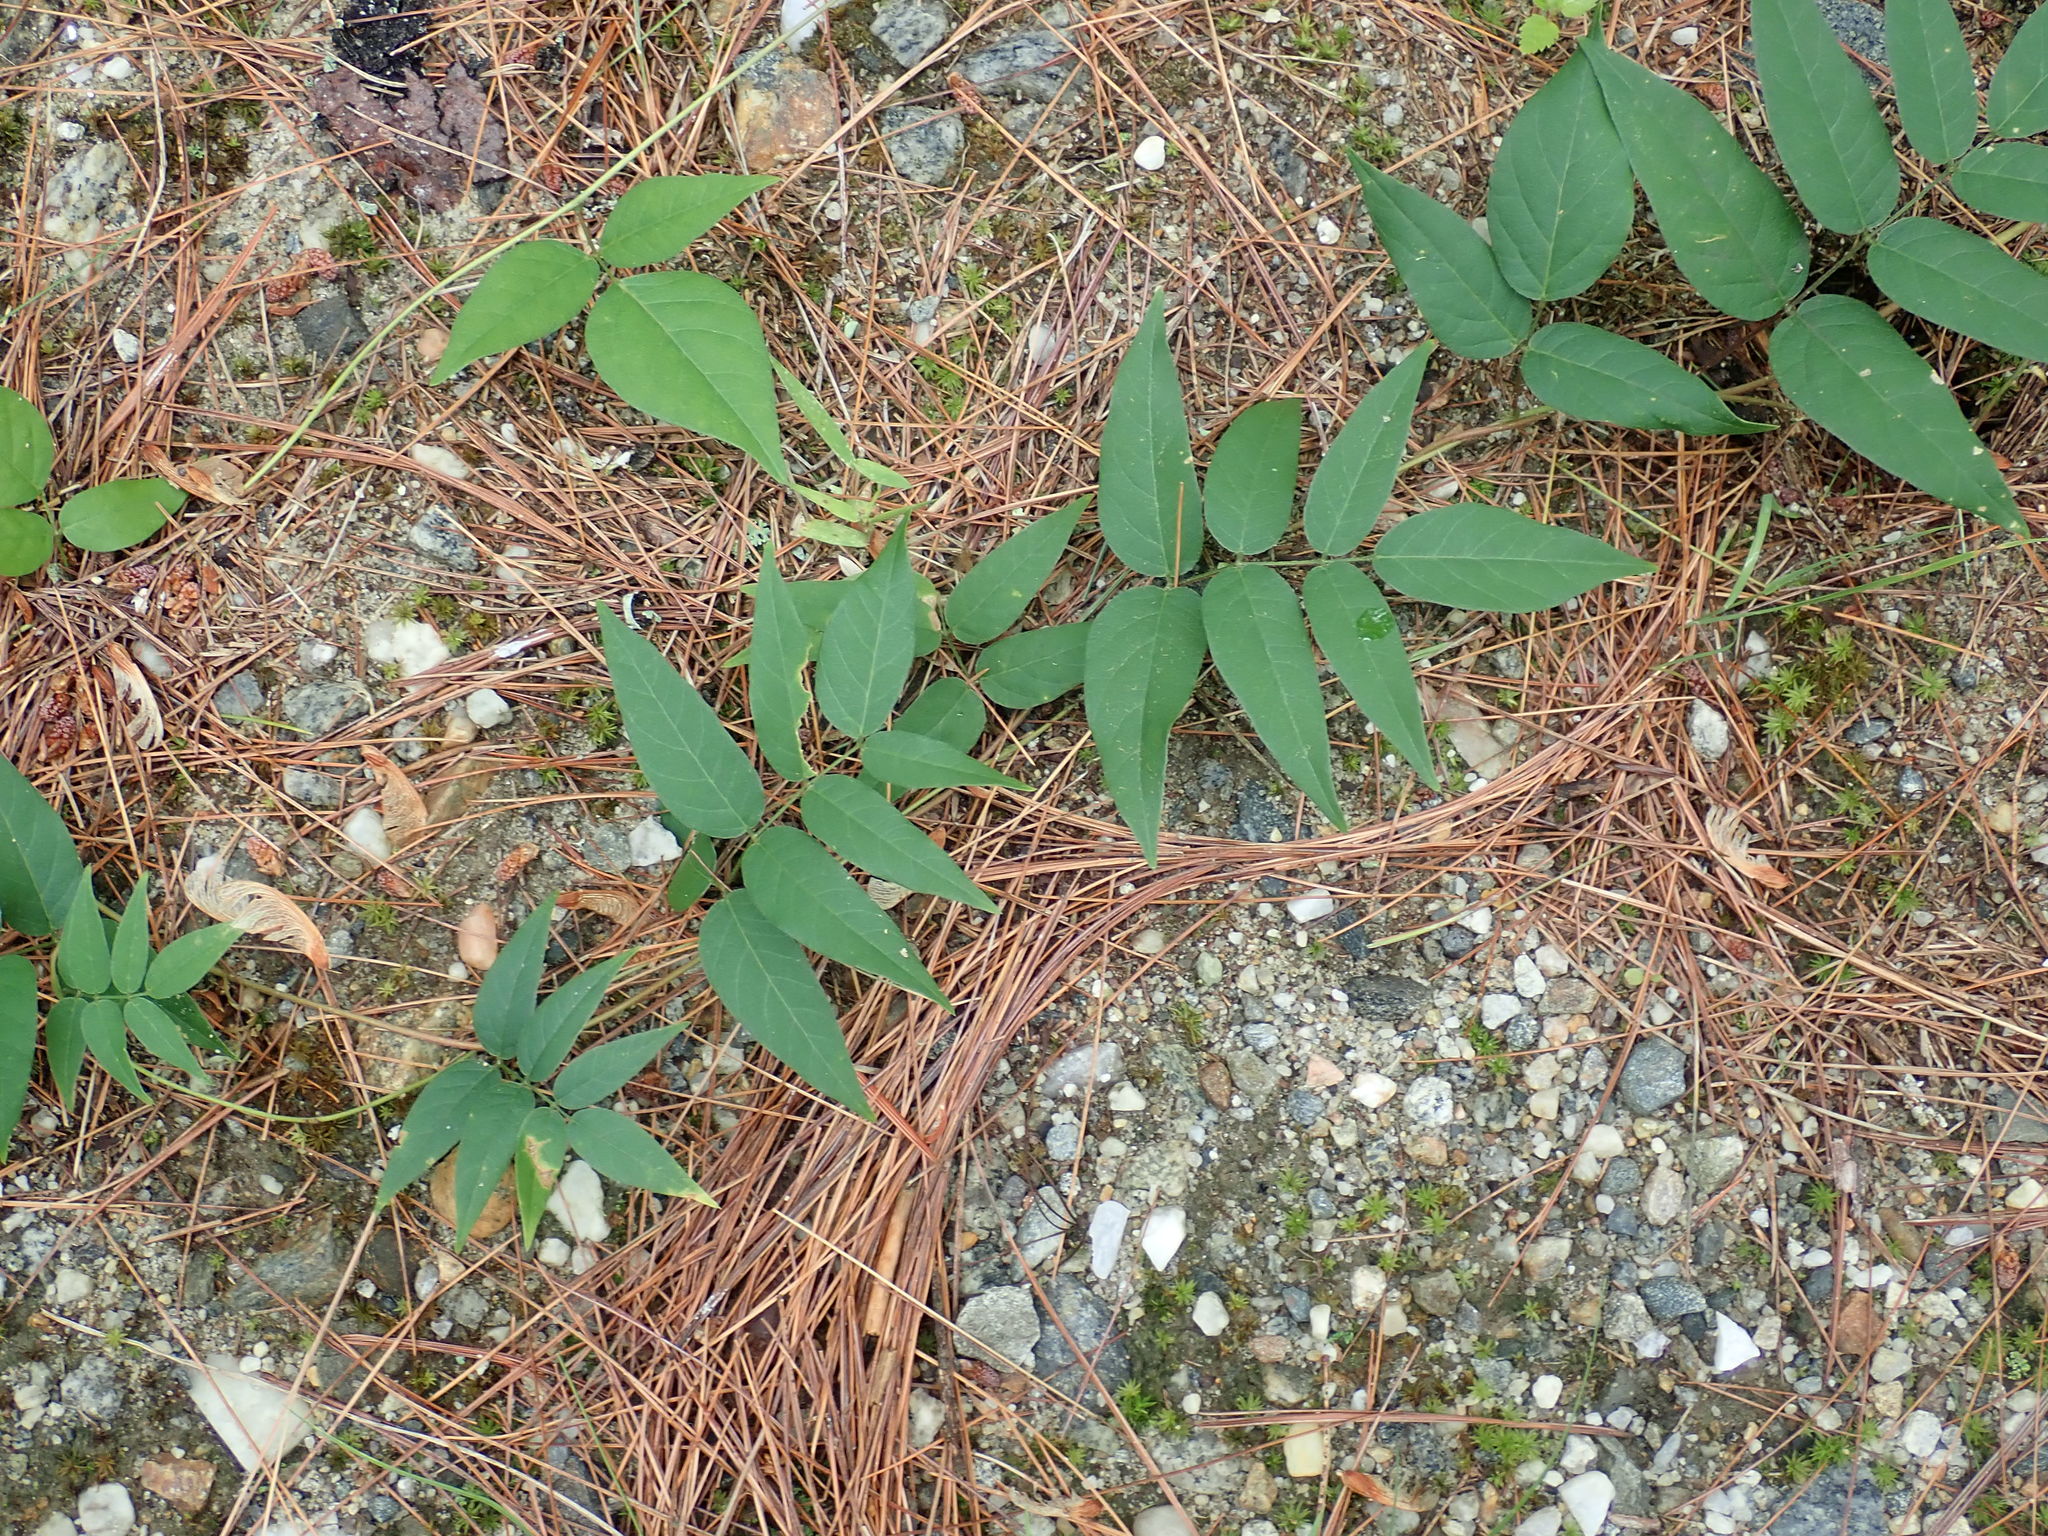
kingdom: Plantae
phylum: Tracheophyta
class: Magnoliopsida
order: Fabales
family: Fabaceae
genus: Apios
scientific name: Apios americana
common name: American potato-bean
